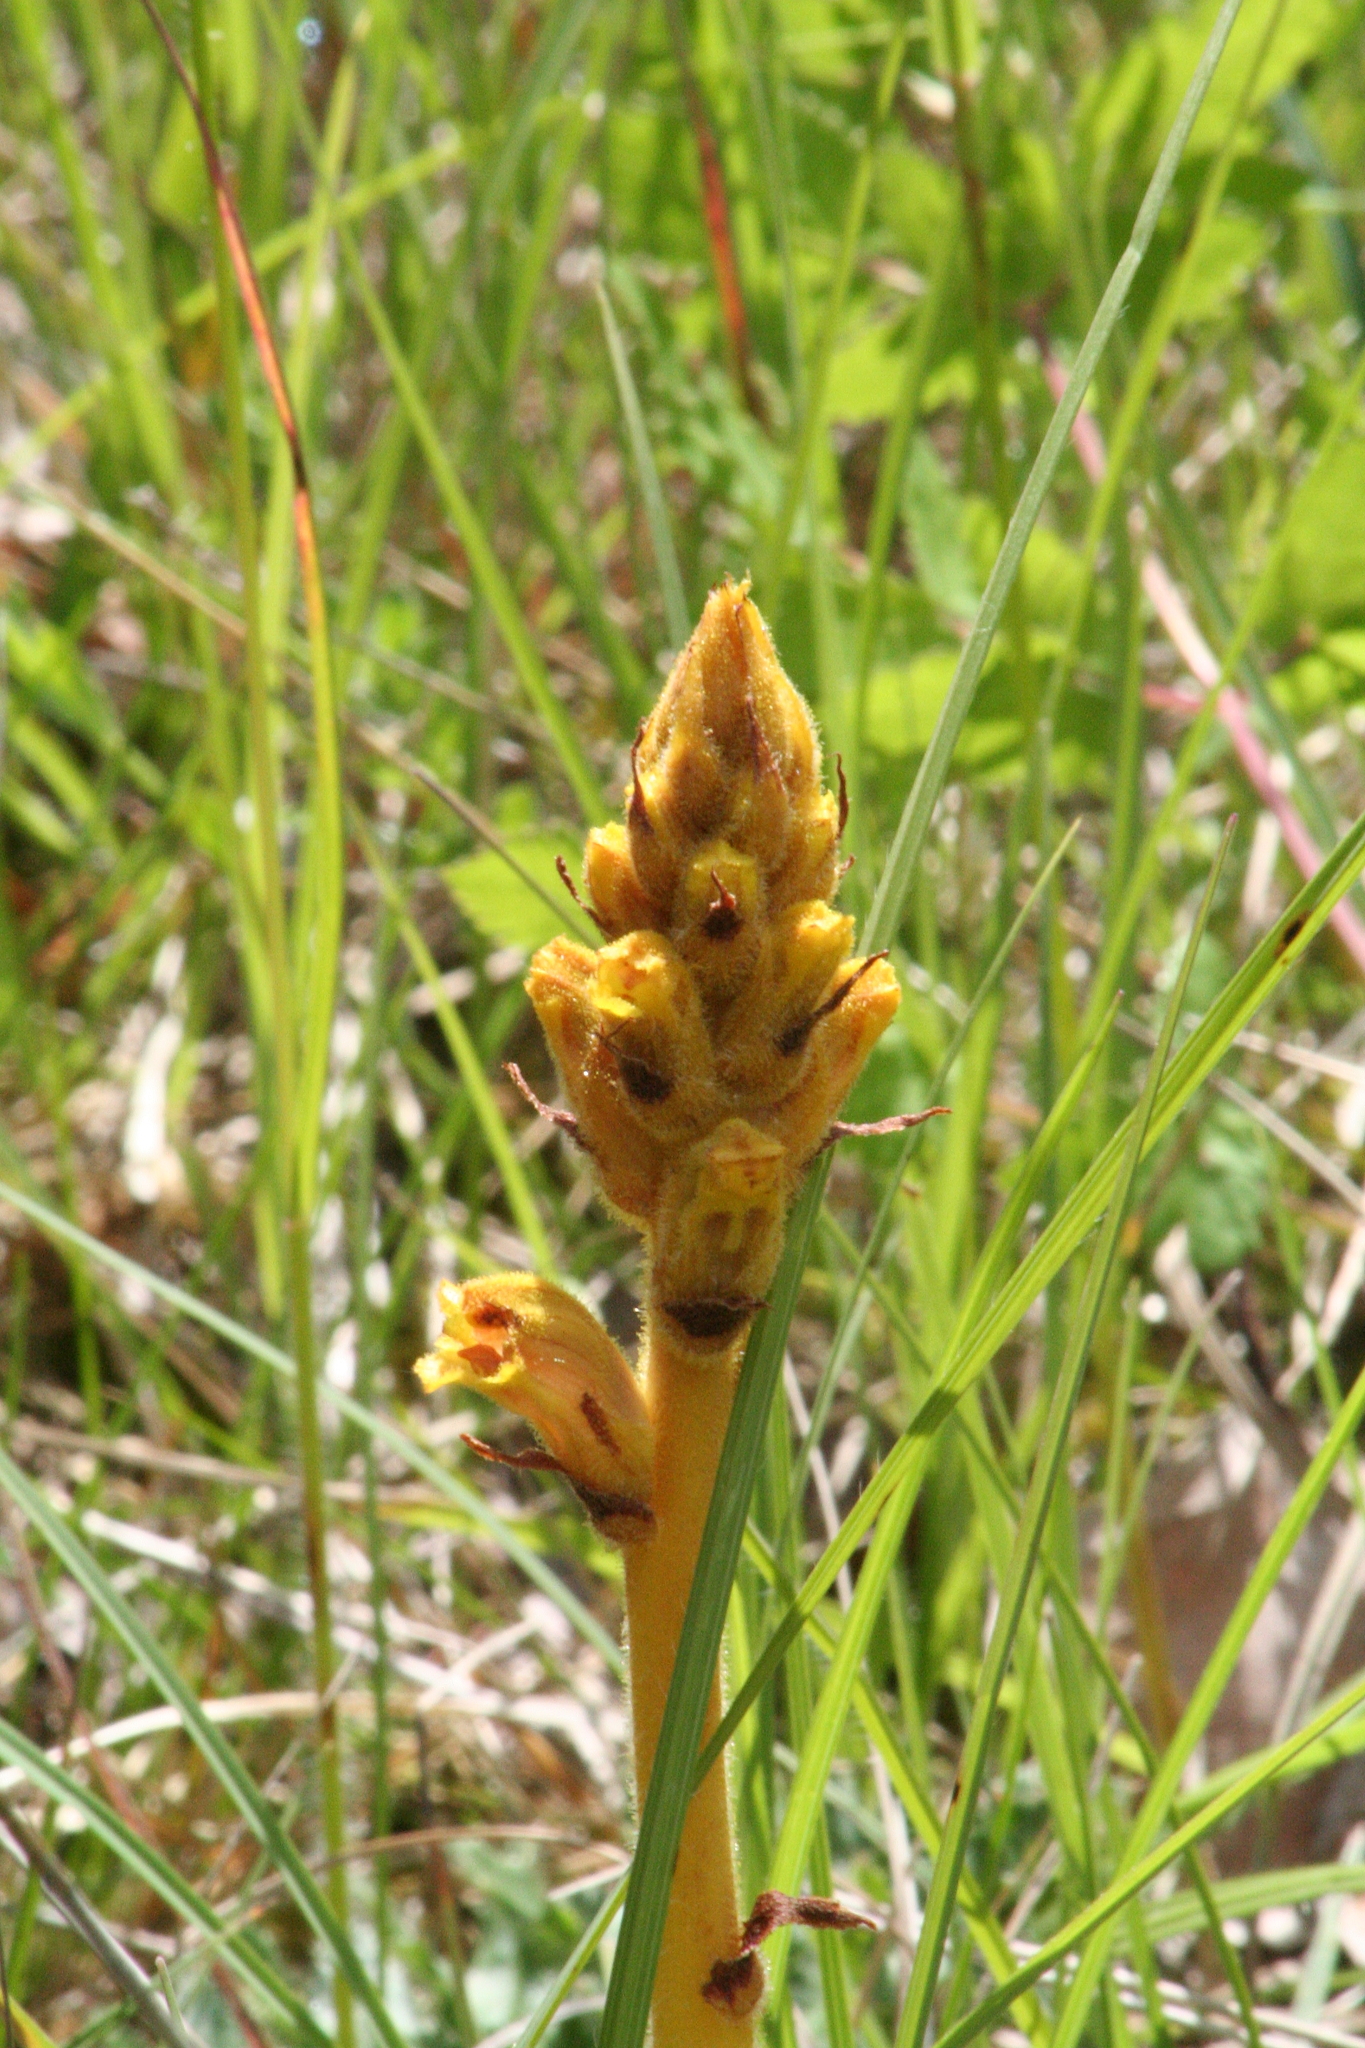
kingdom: Plantae
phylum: Tracheophyta
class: Magnoliopsida
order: Lamiales
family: Orobanchaceae
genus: Orobanche
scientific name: Orobanche gracilis
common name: Slender broomrape
